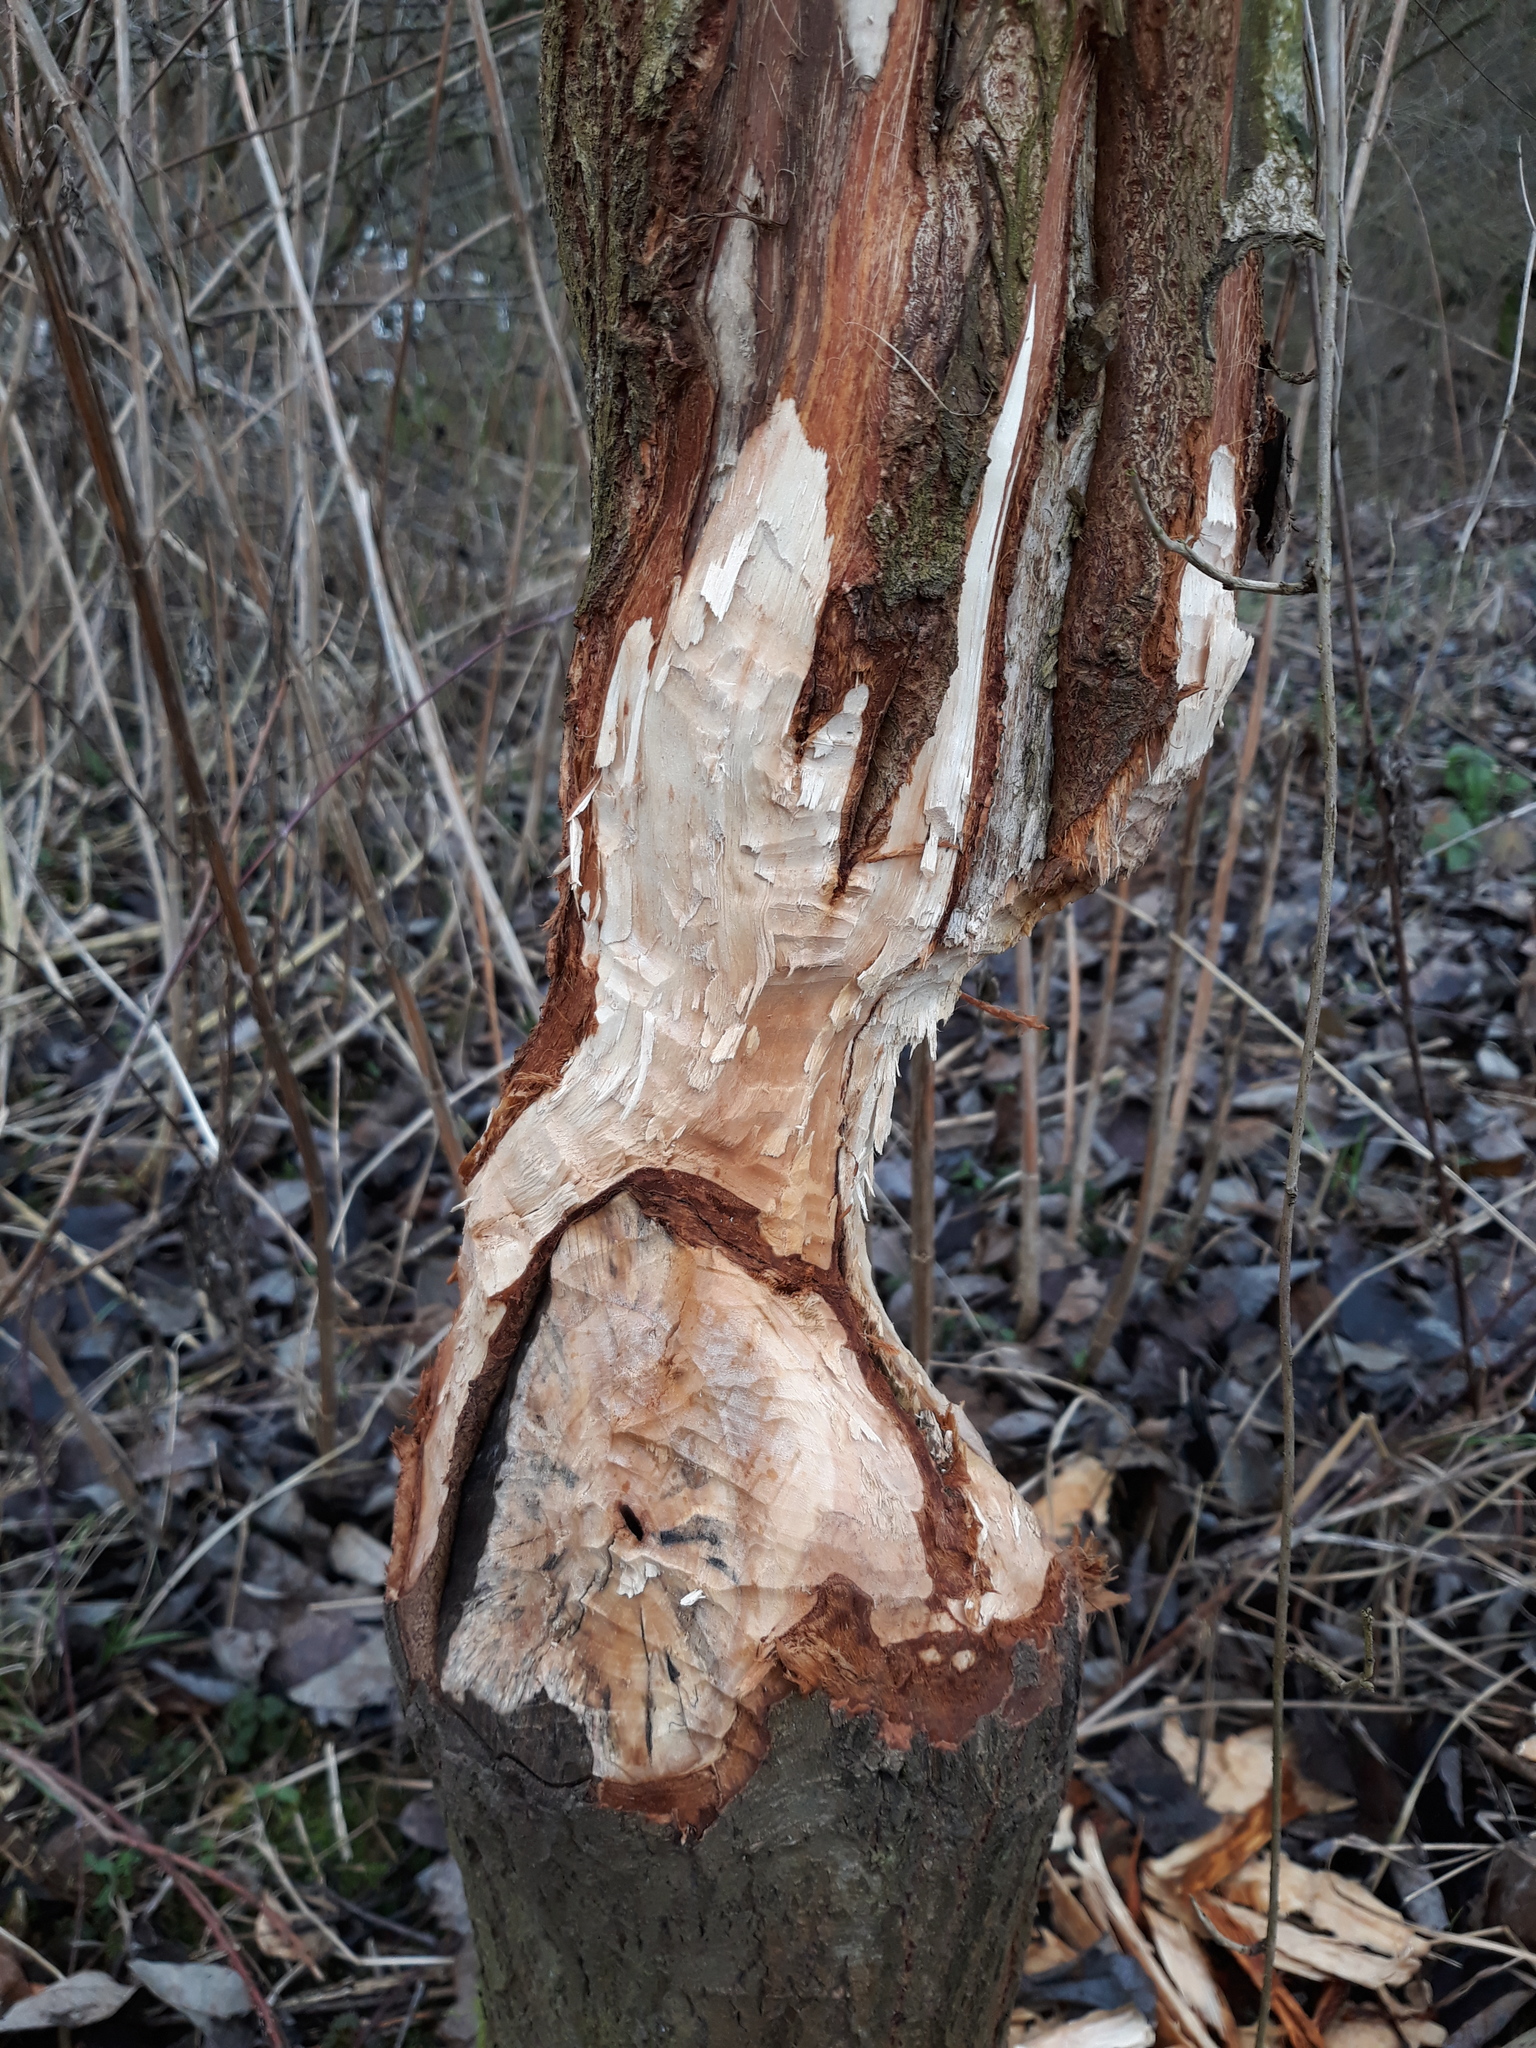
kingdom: Animalia
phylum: Chordata
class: Mammalia
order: Rodentia
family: Castoridae
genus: Castor
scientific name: Castor fiber
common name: Eurasian beaver
